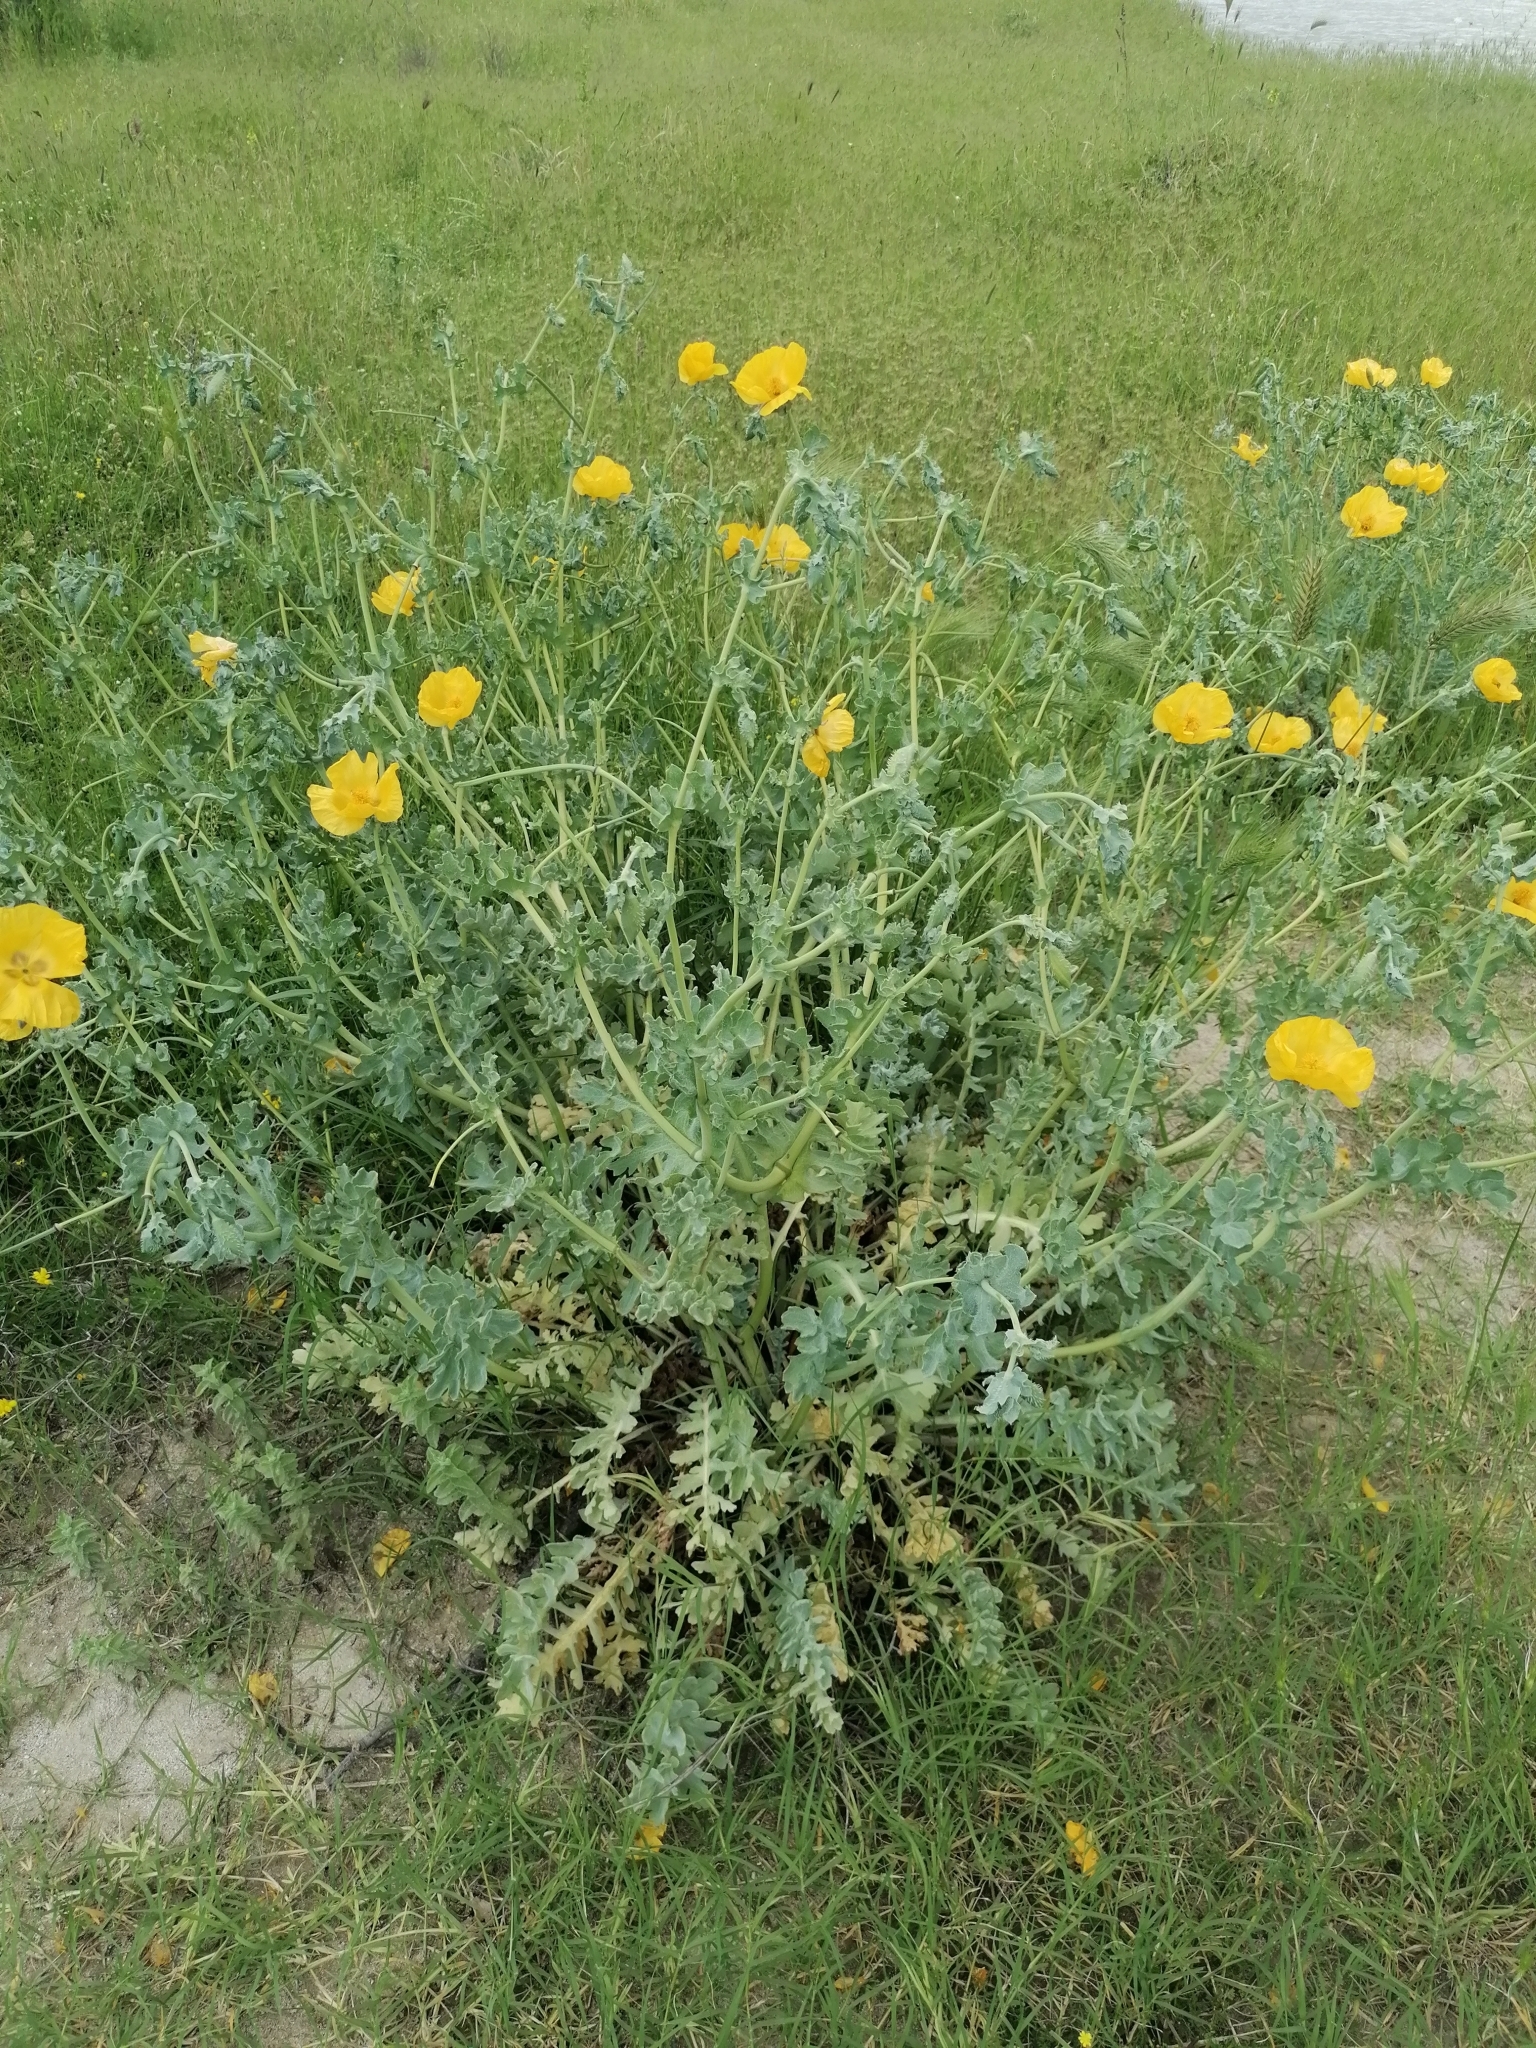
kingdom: Plantae
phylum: Tracheophyta
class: Magnoliopsida
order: Ranunculales
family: Papaveraceae
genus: Glaucium
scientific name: Glaucium flavum
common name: Yellow horned-poppy
